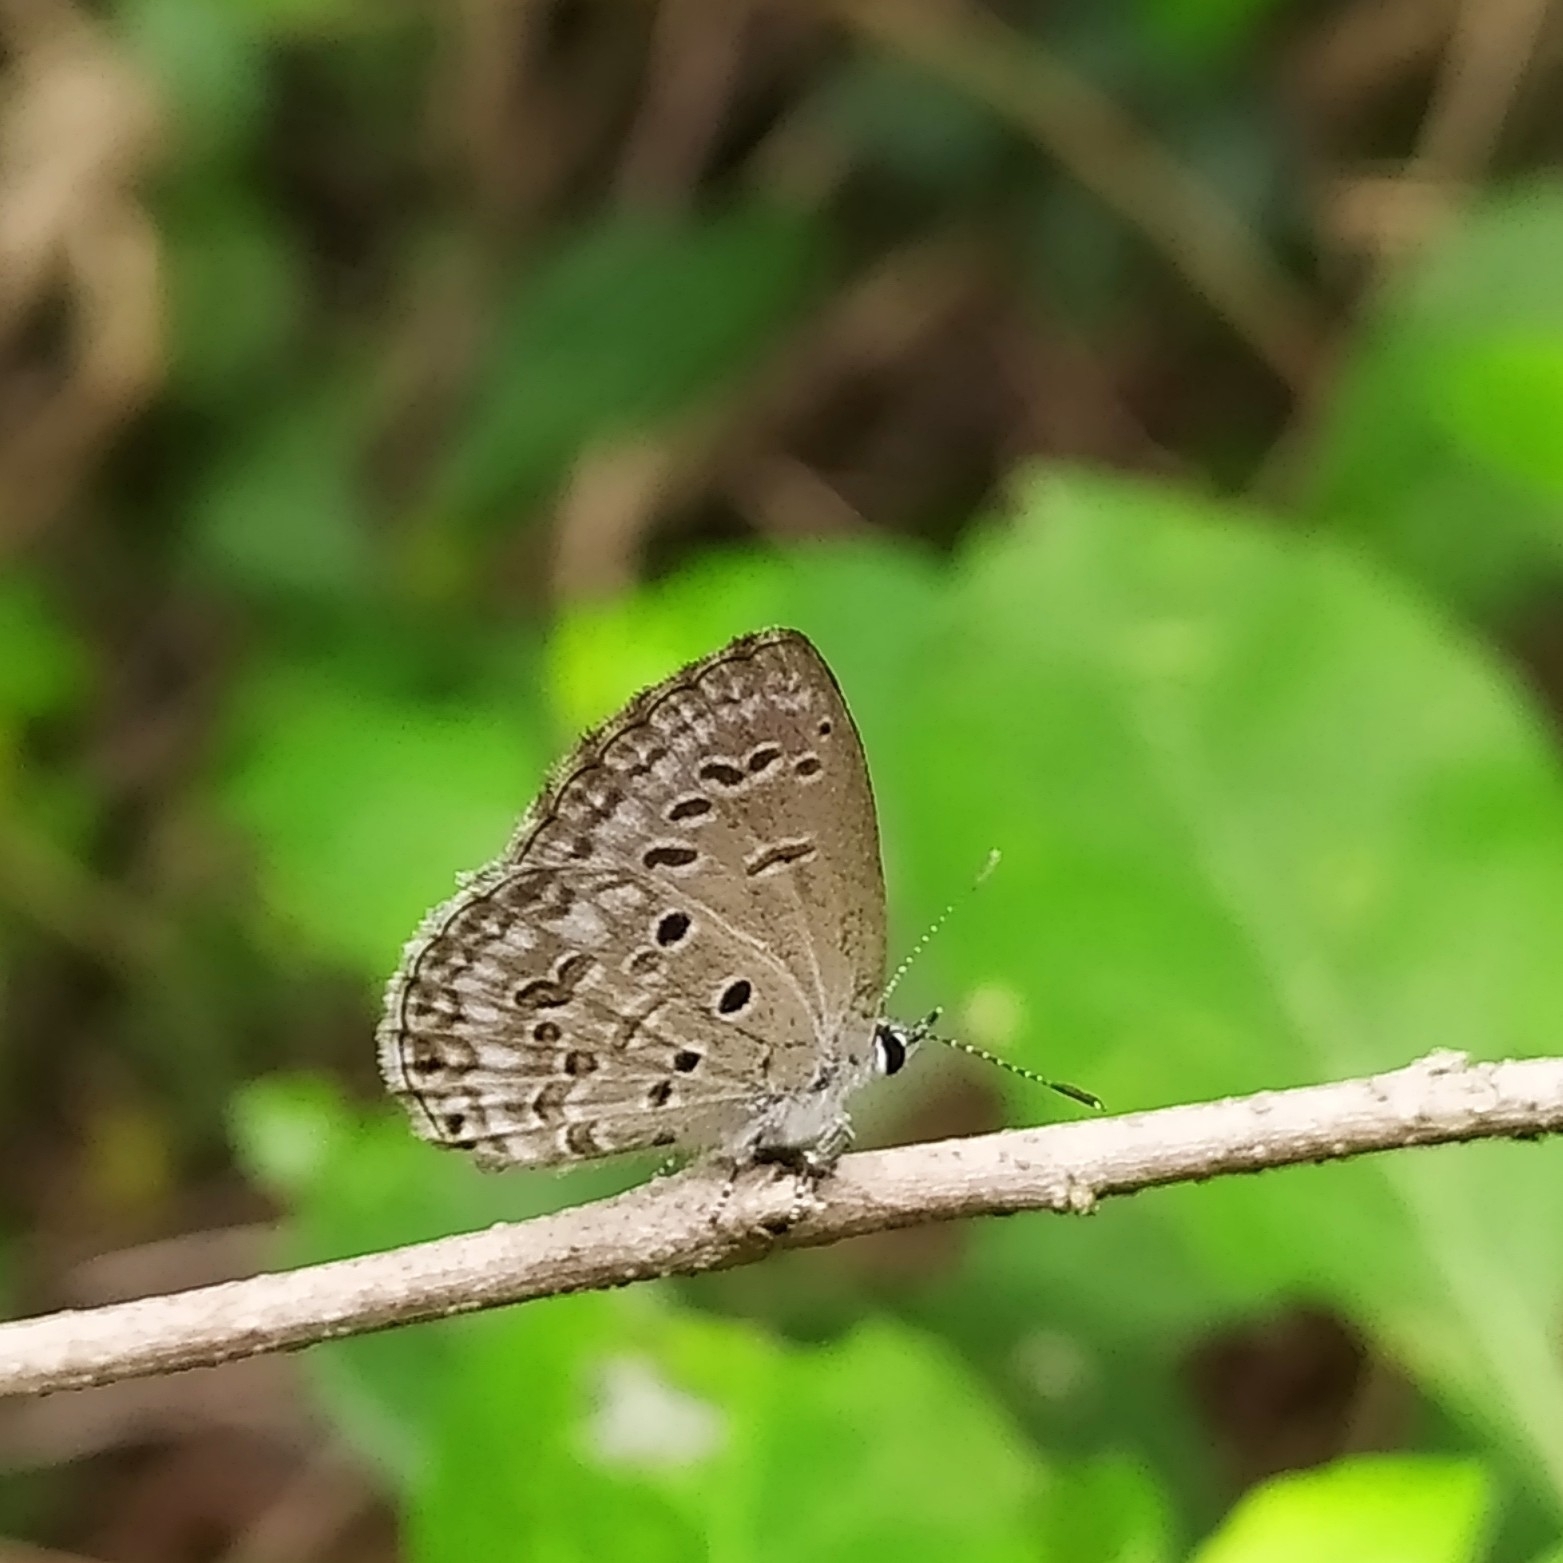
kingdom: Animalia
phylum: Arthropoda
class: Insecta
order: Lepidoptera
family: Lycaenidae
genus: Chilades
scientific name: Chilades laius
